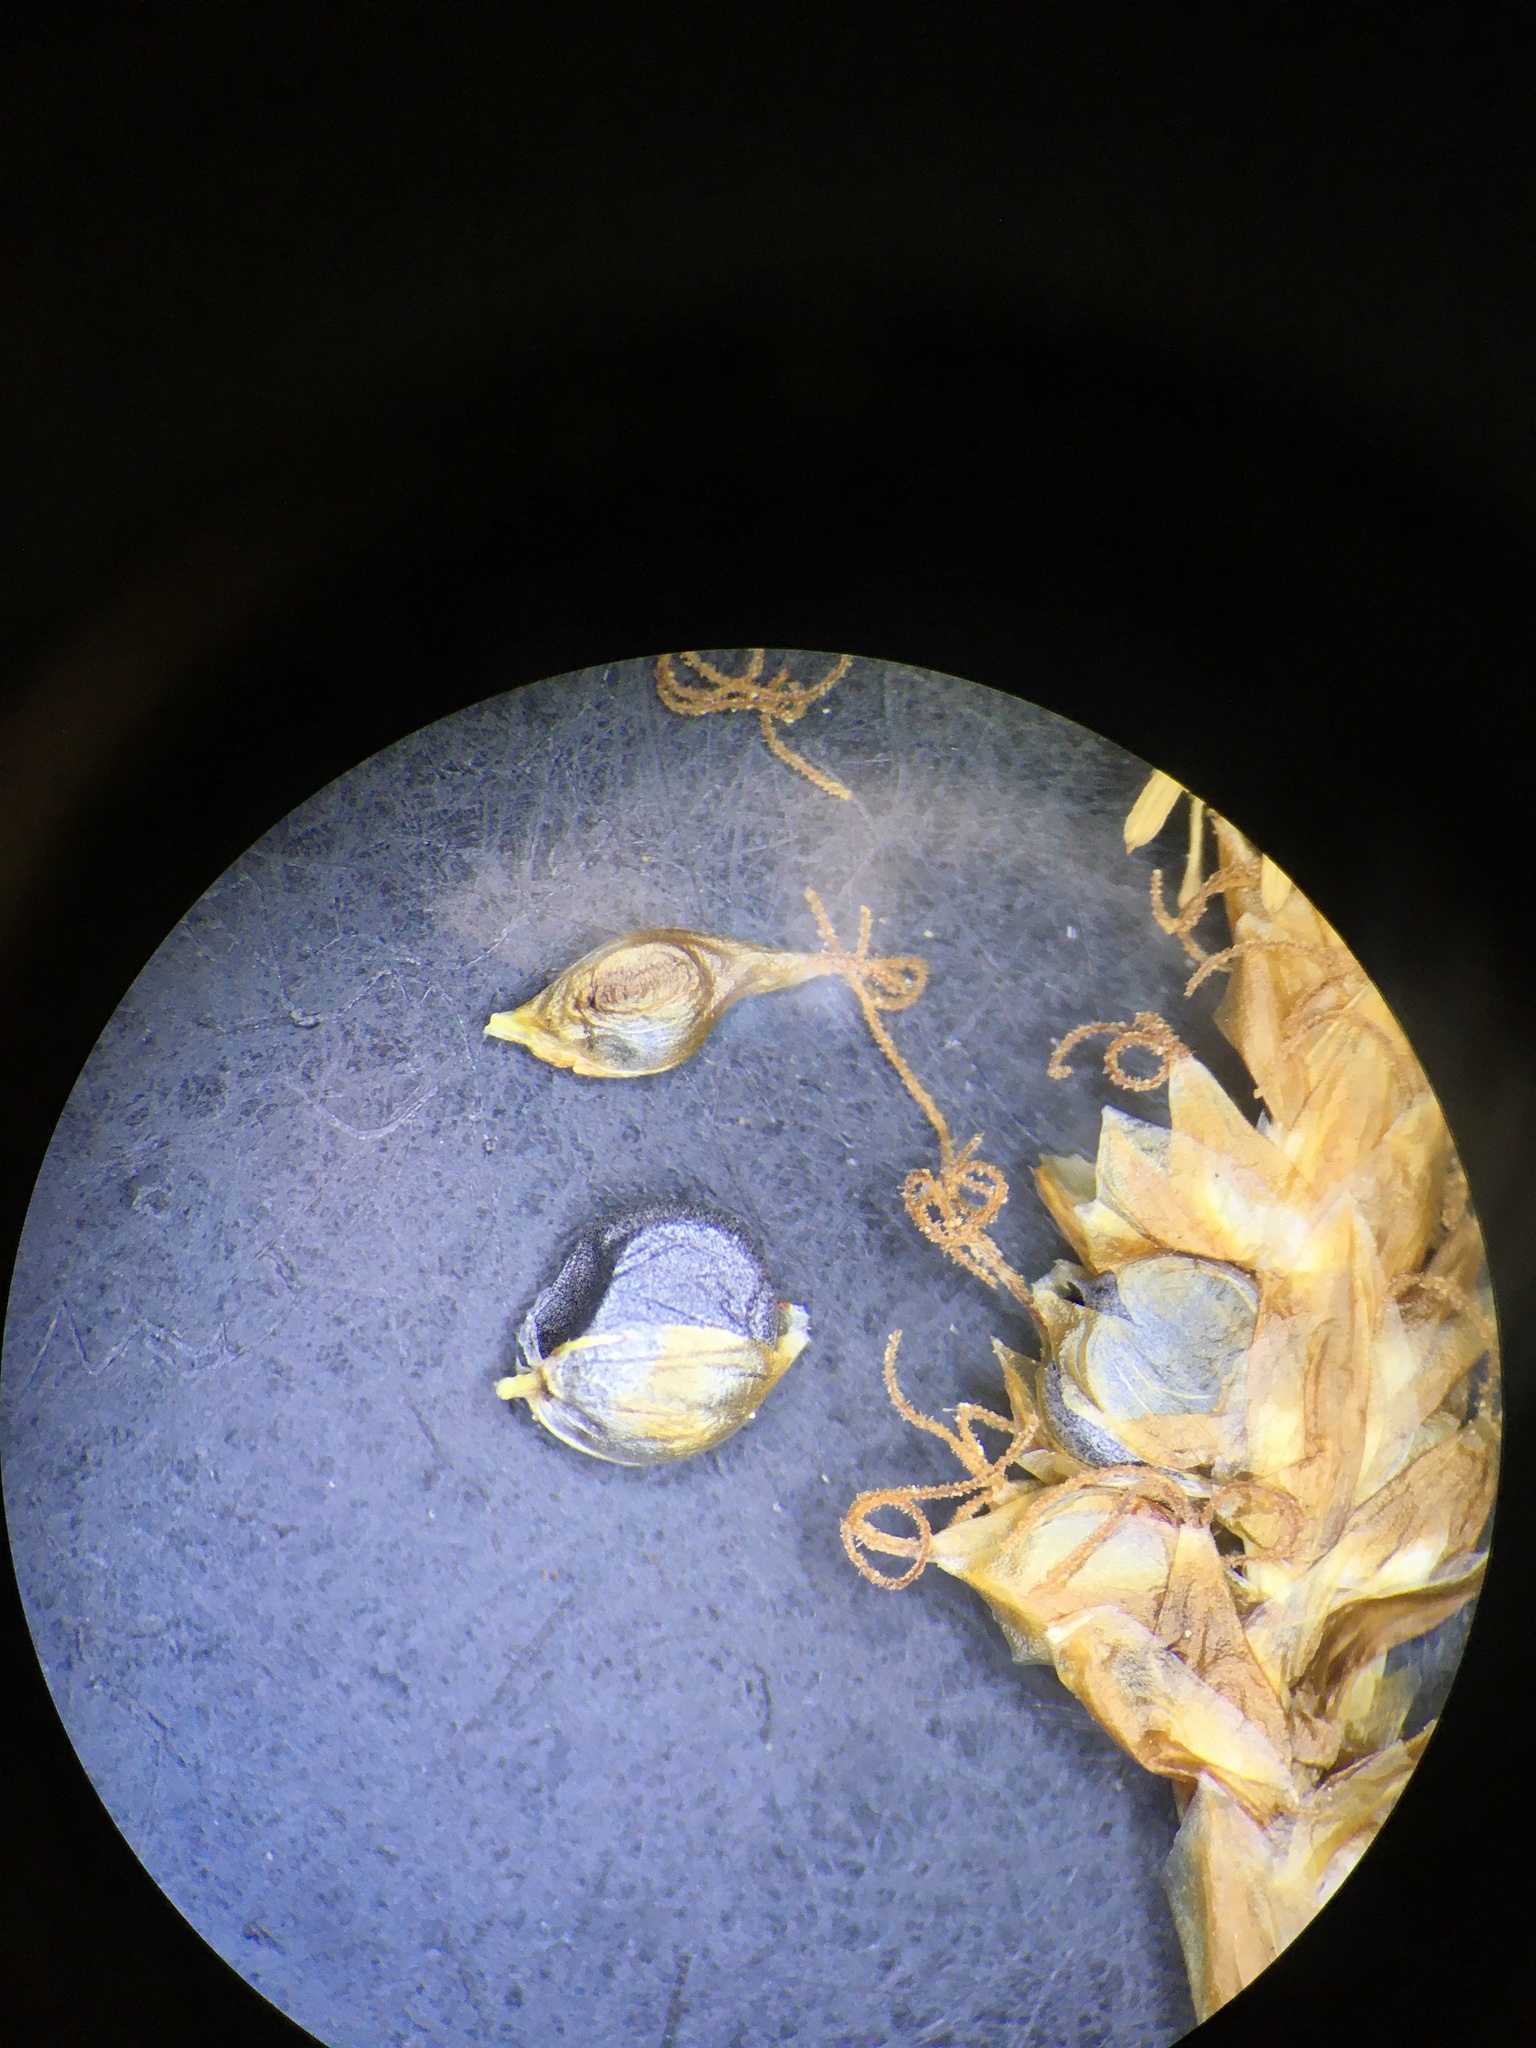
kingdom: Plantae
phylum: Tracheophyta
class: Liliopsida
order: Poales
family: Cyperaceae
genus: Carex
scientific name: Carex subnigricans
